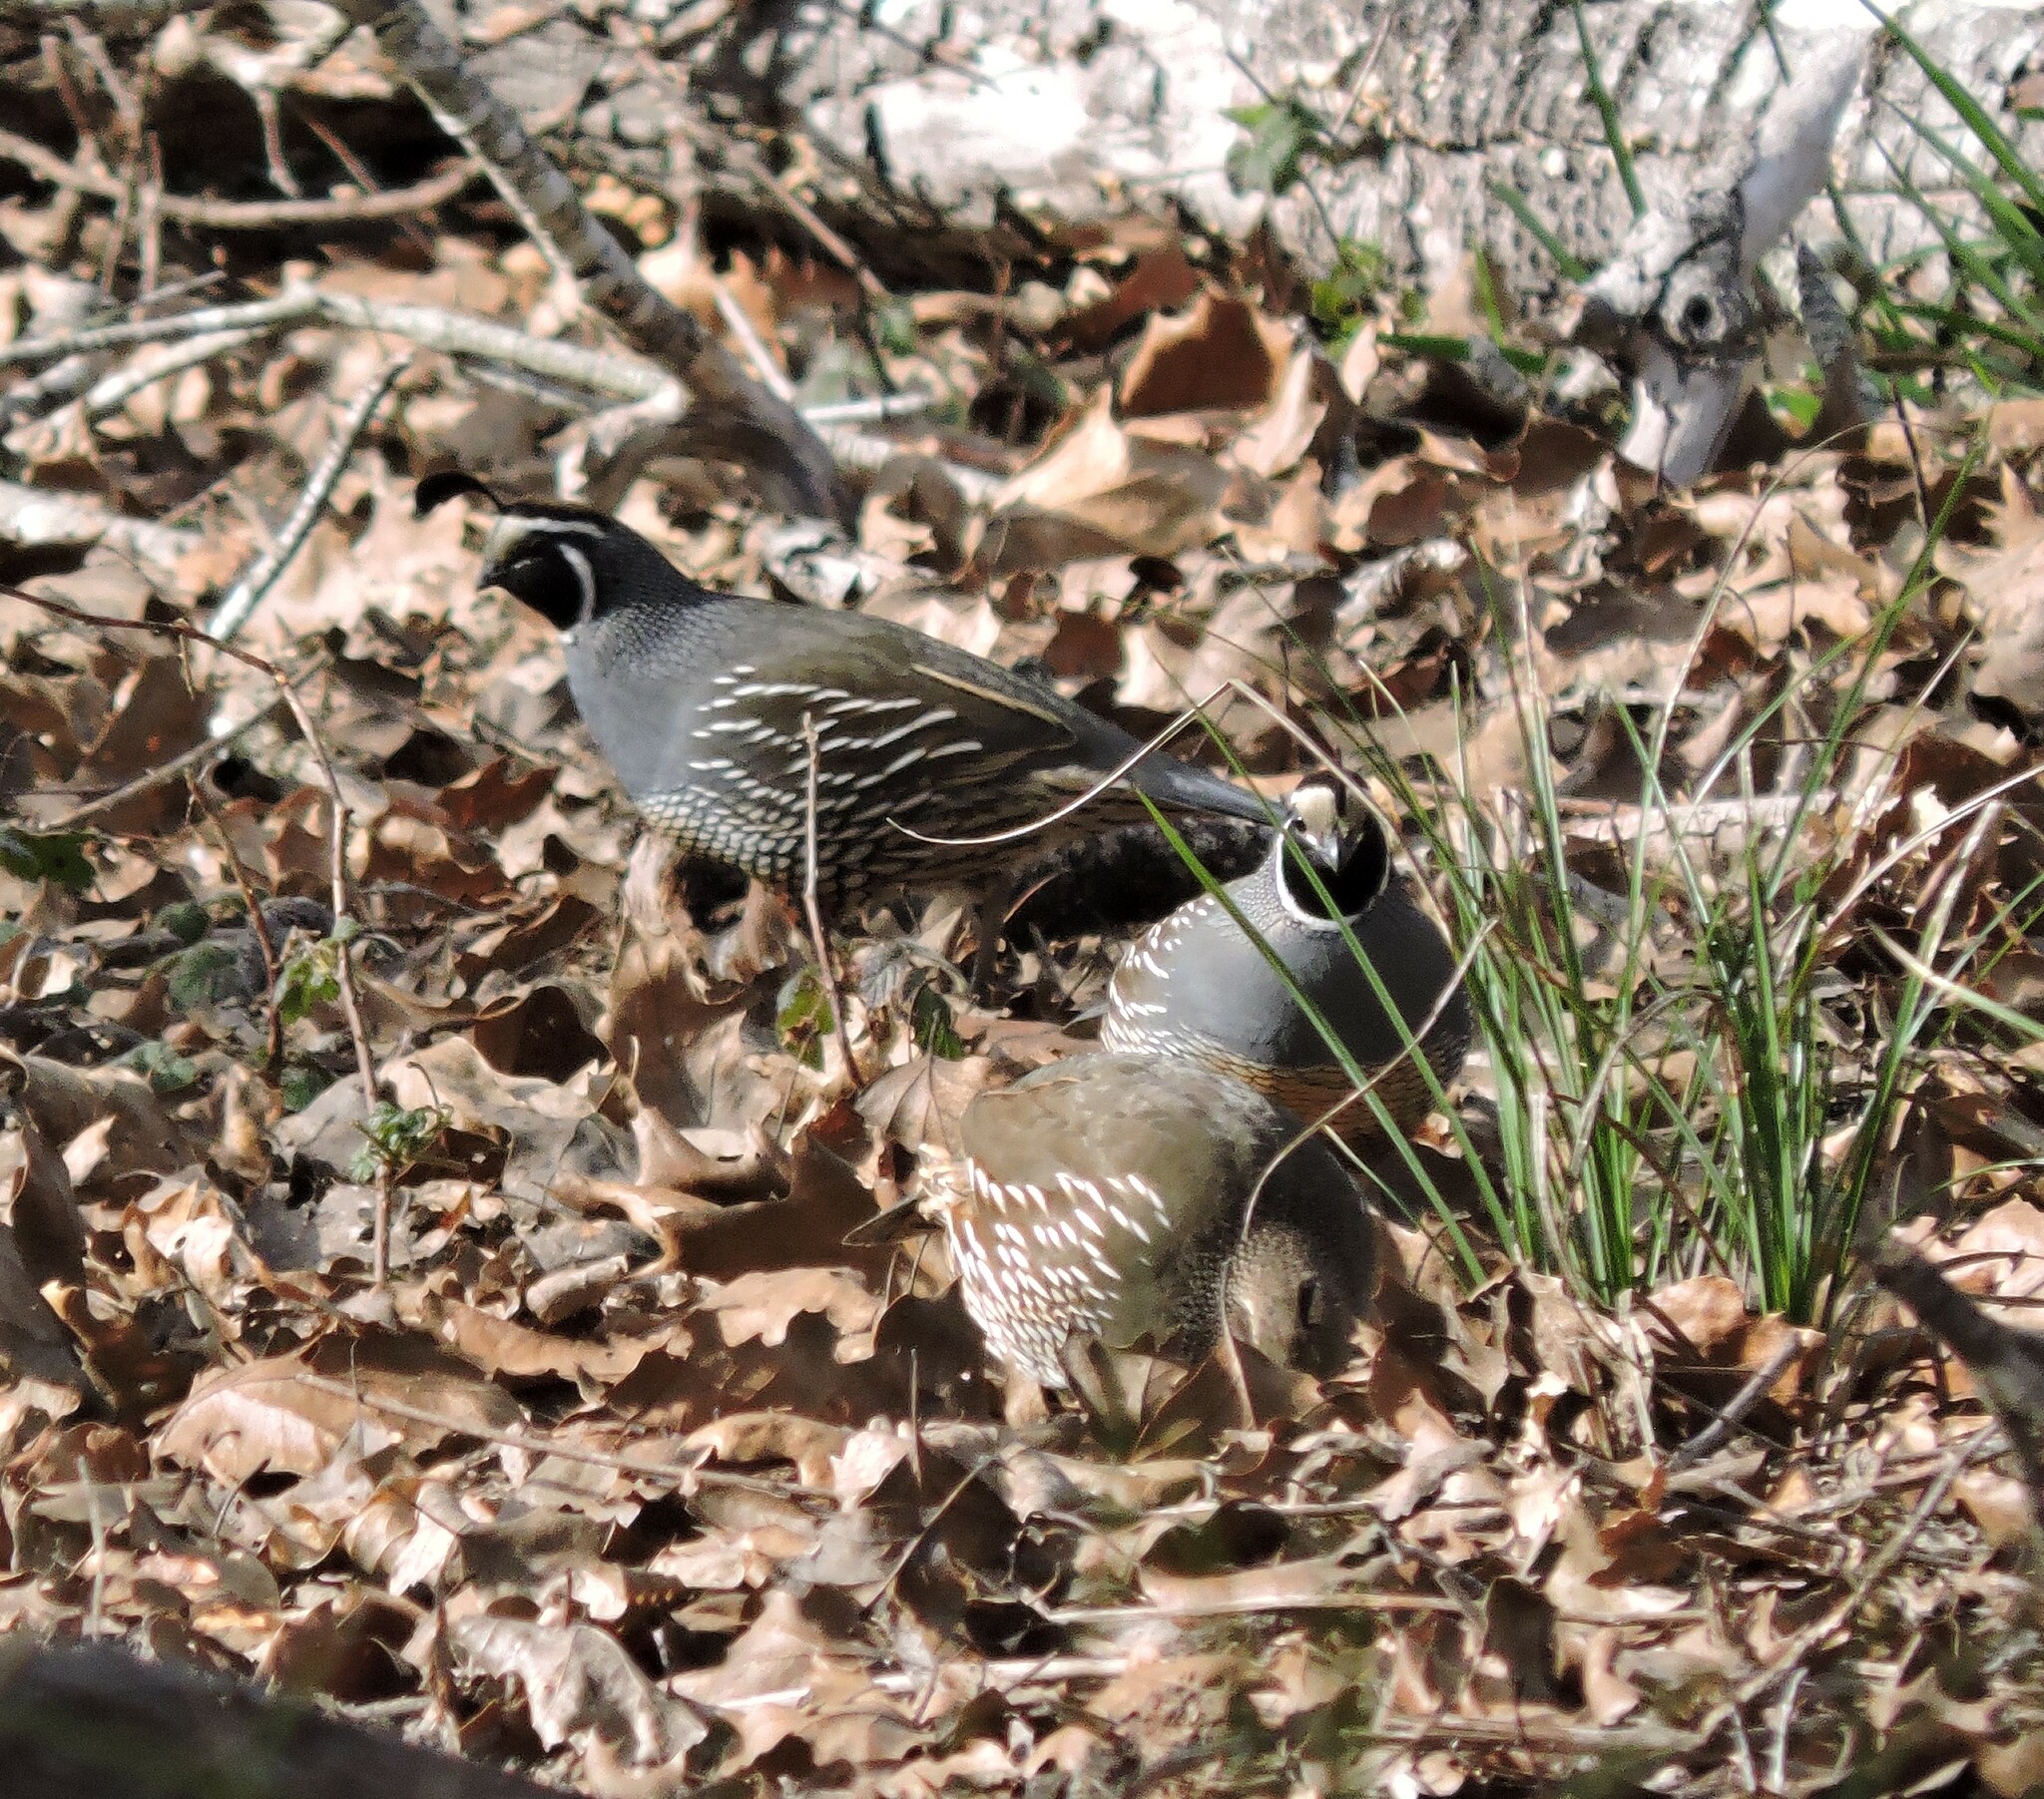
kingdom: Animalia
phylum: Chordata
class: Aves
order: Galliformes
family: Odontophoridae
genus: Callipepla
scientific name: Callipepla californica
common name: California quail
